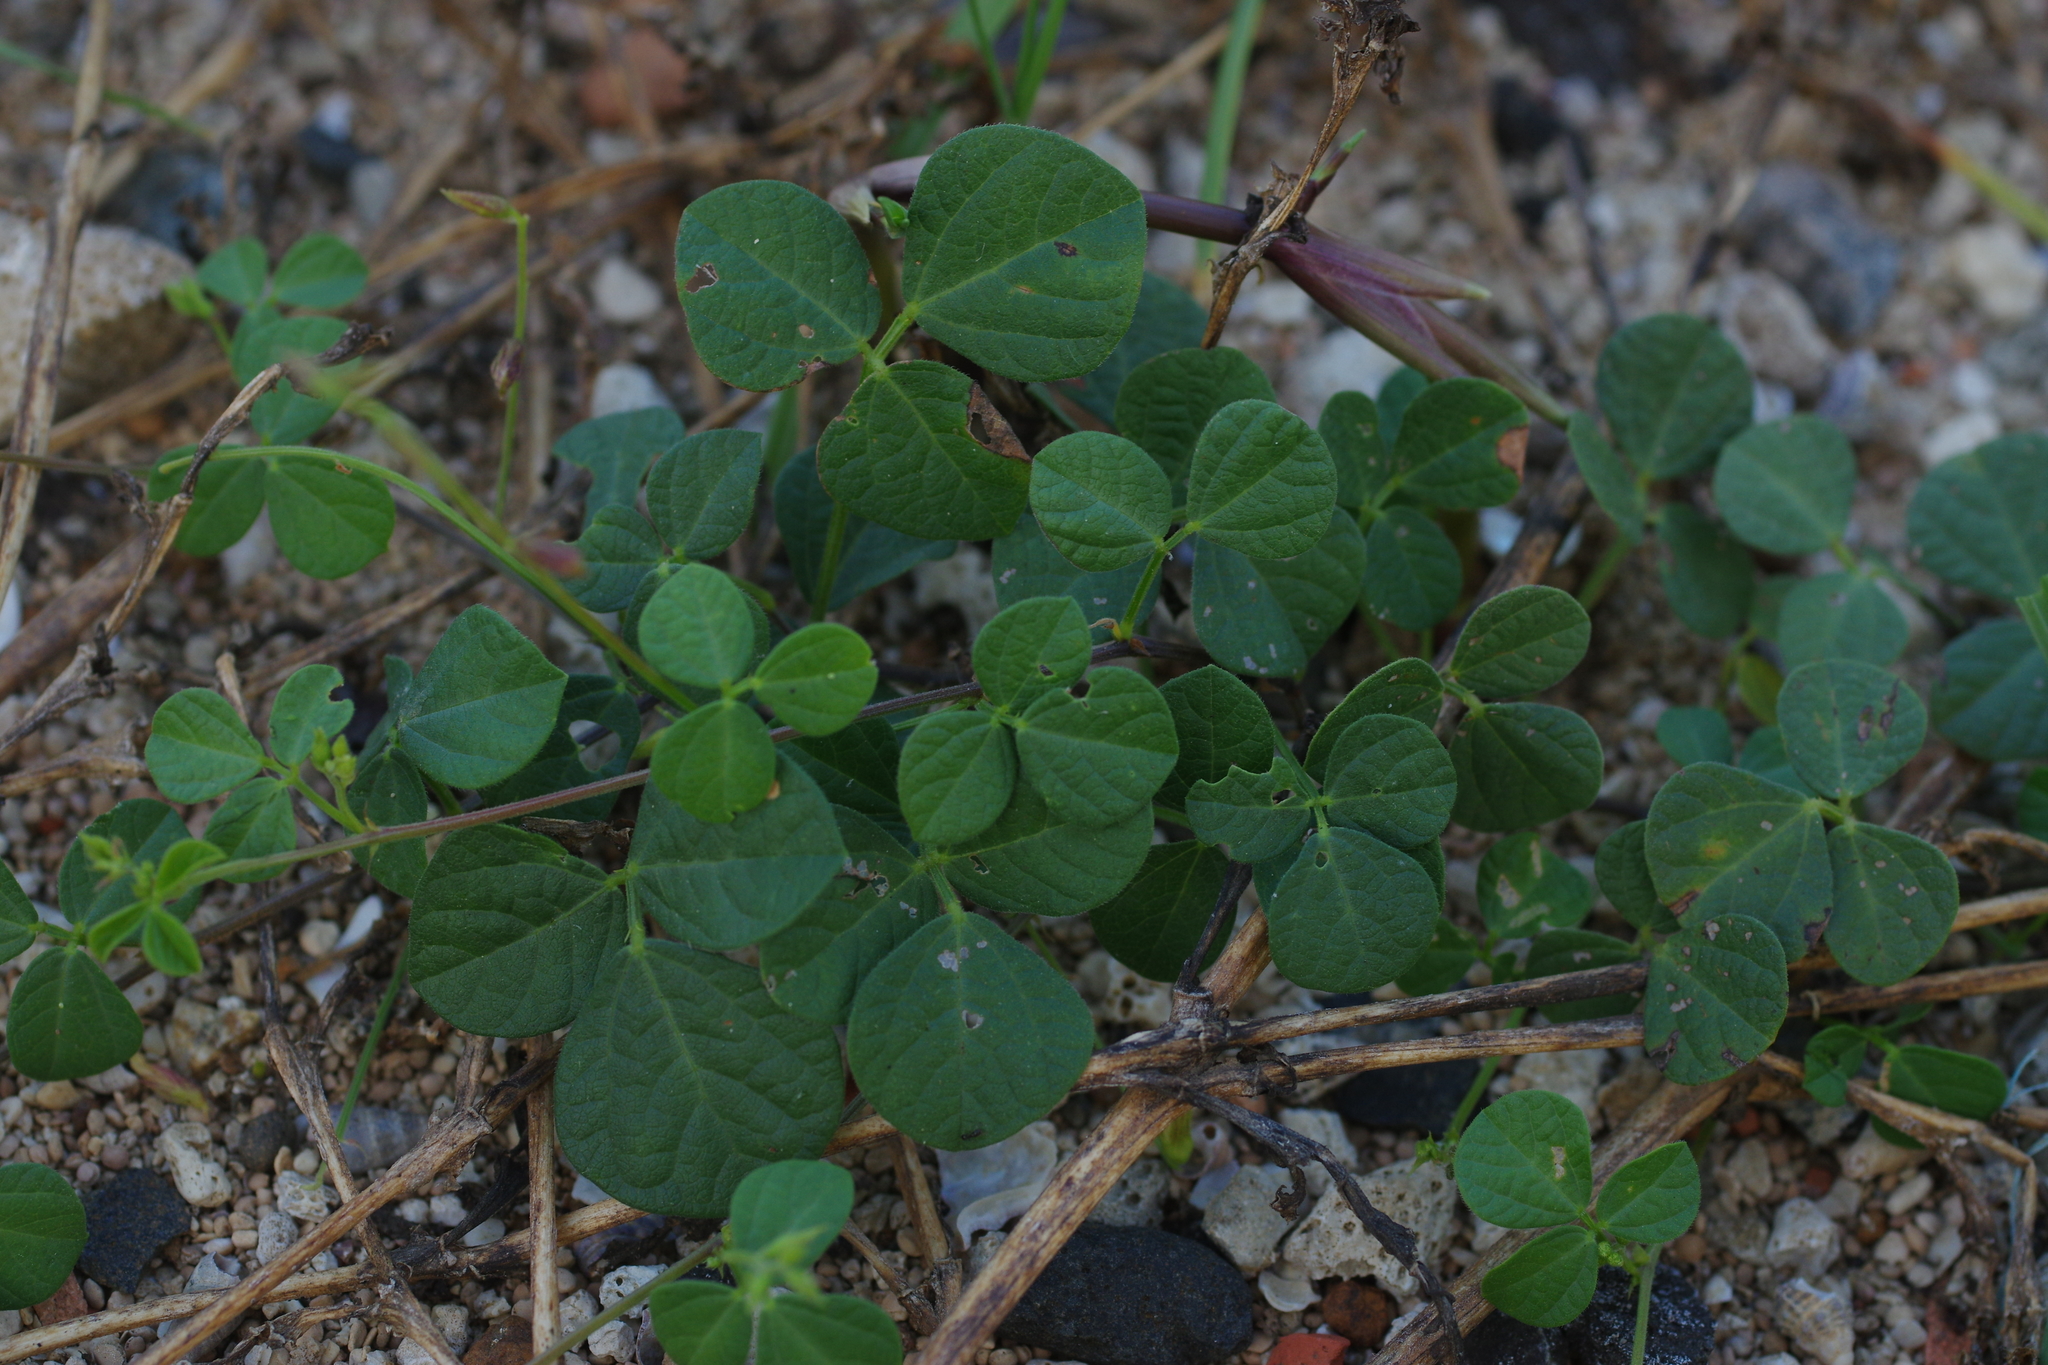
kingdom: Plantae
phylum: Tracheophyta
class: Magnoliopsida
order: Fabales
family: Fabaceae
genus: Rhynchosia
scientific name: Rhynchosia minima
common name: Least snoutbean
